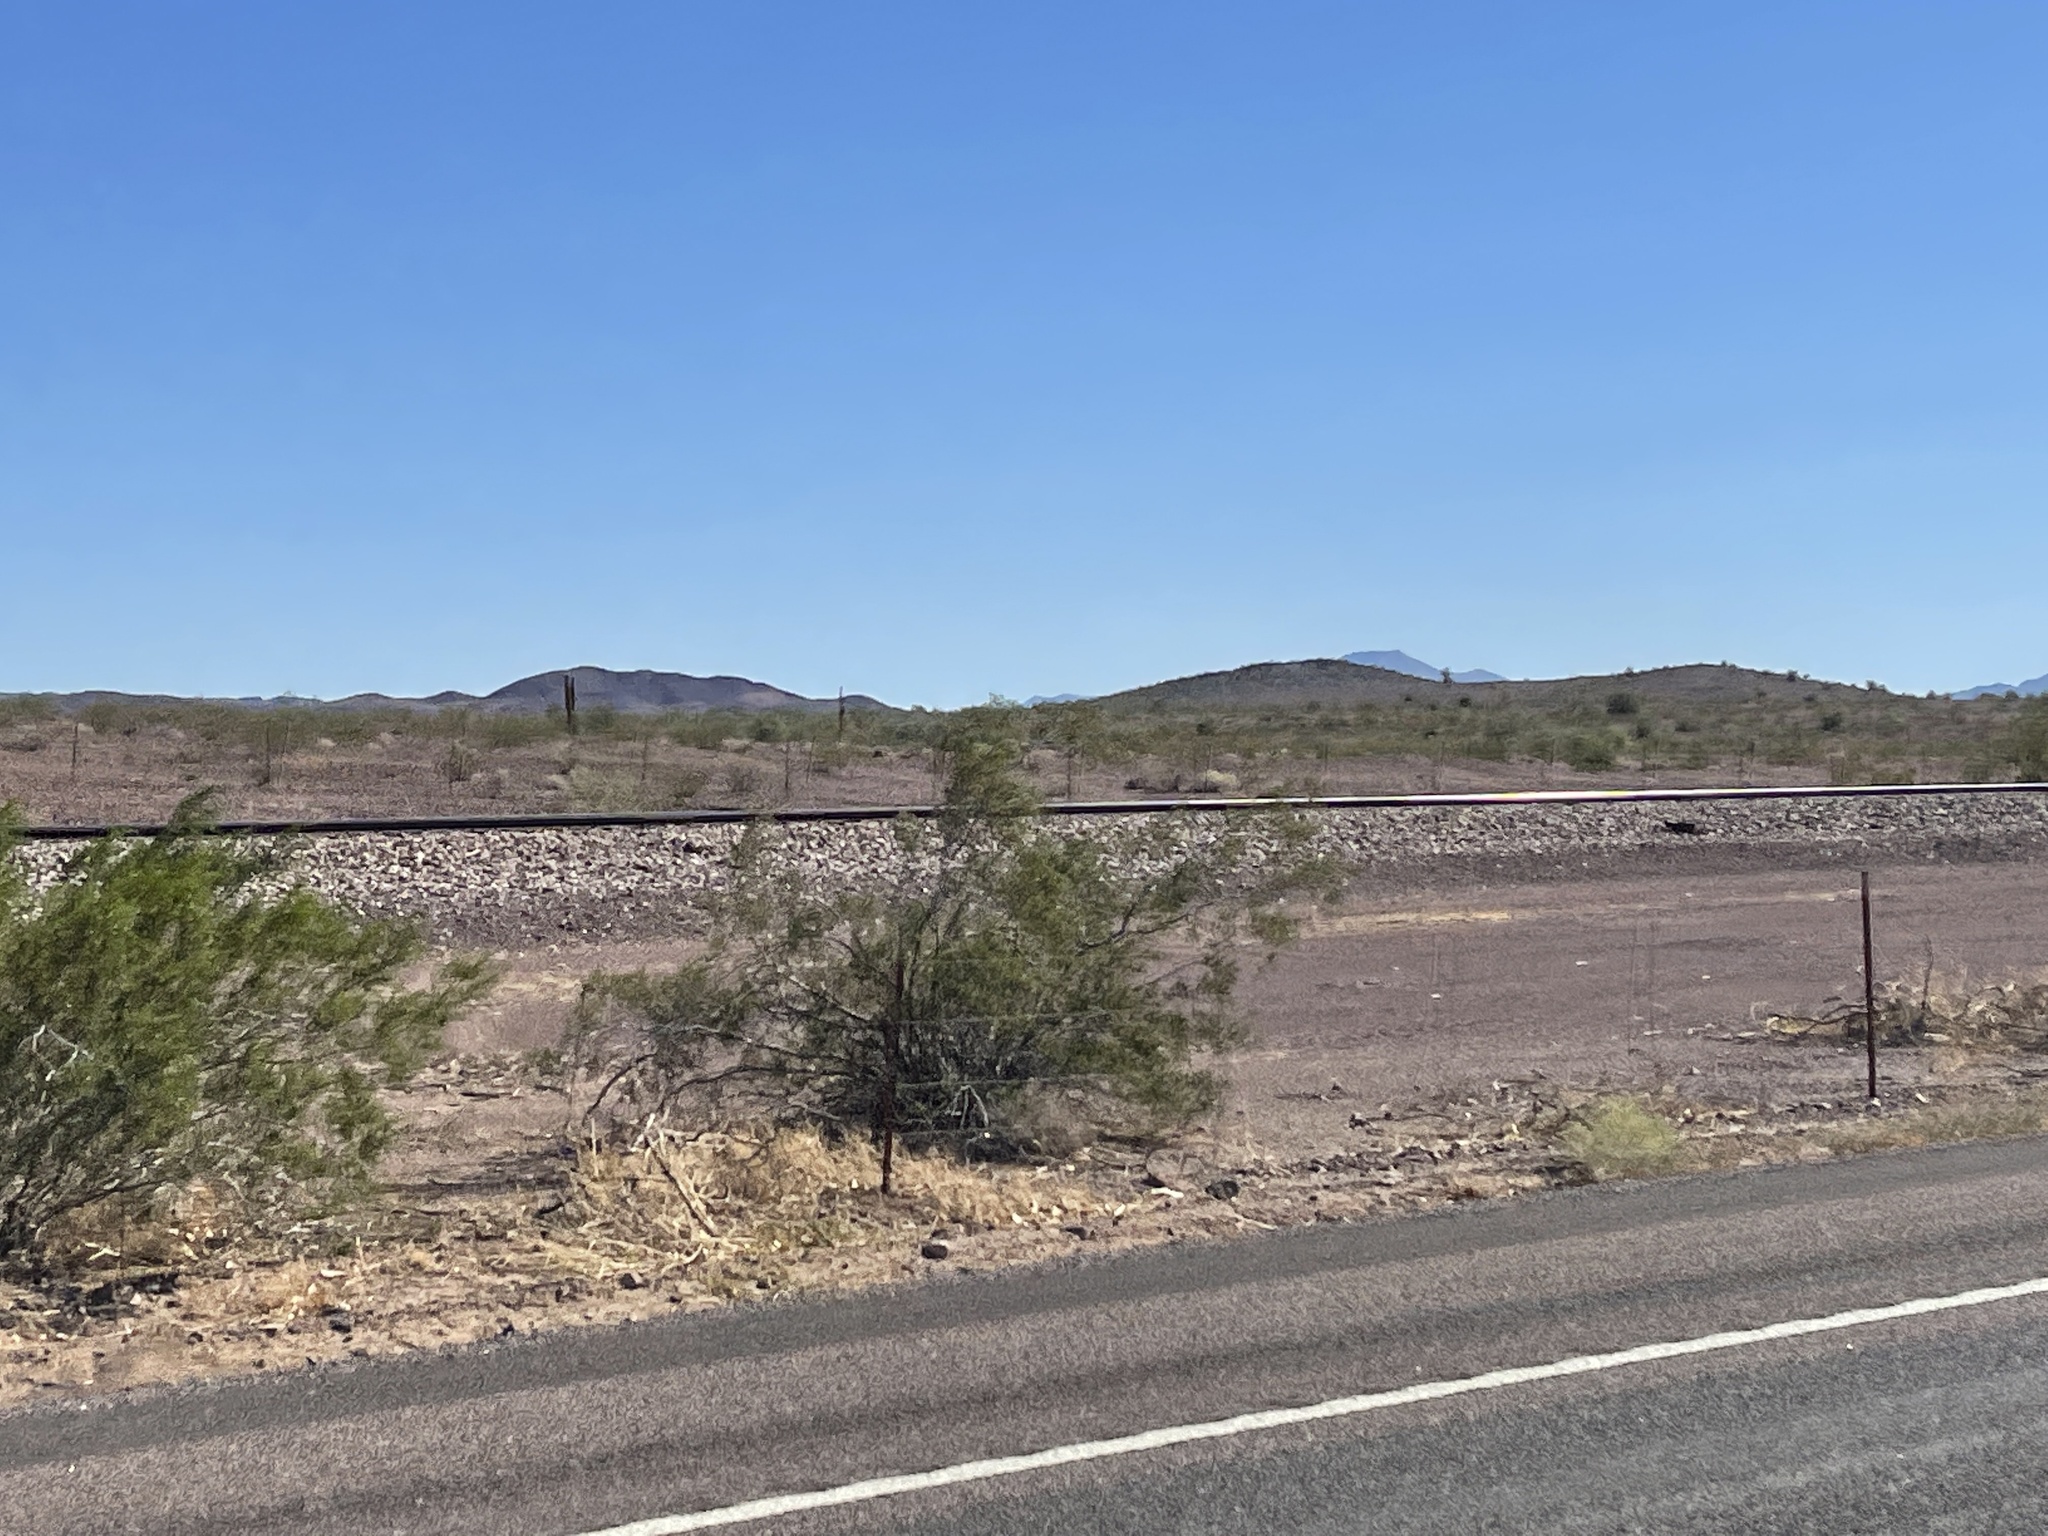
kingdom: Plantae
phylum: Tracheophyta
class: Magnoliopsida
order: Zygophyllales
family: Zygophyllaceae
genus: Larrea
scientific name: Larrea tridentata
